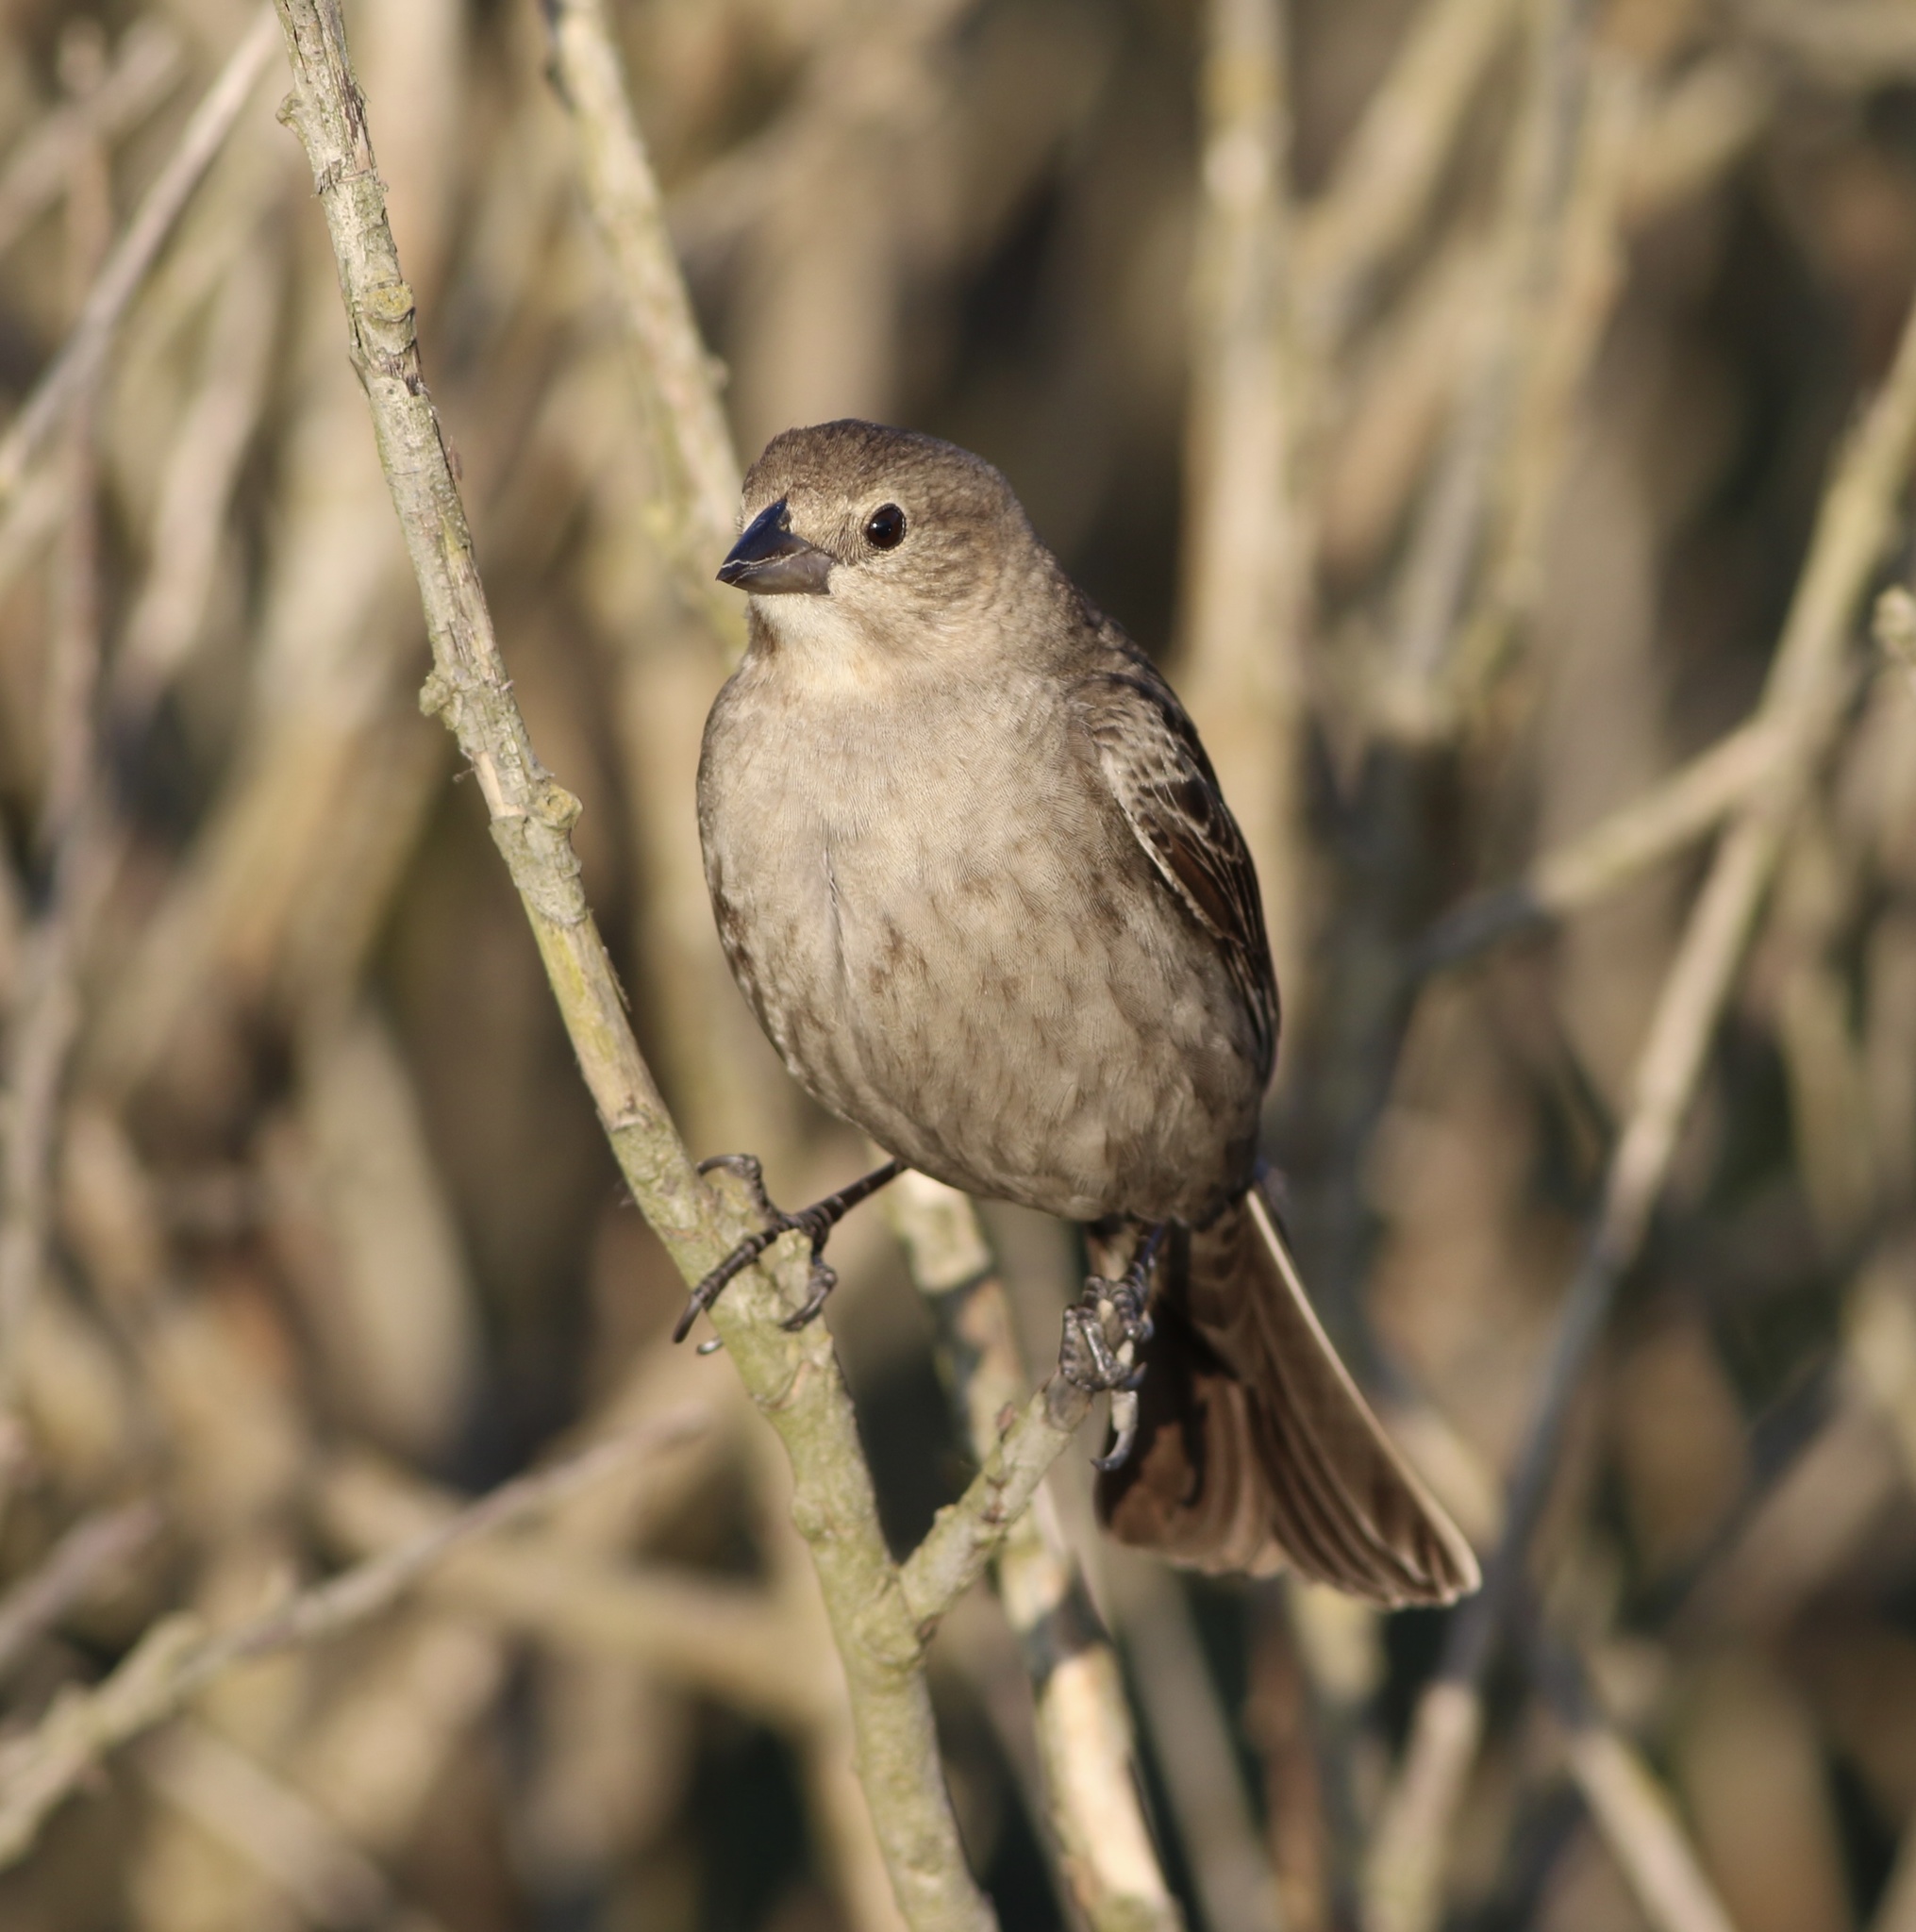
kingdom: Animalia
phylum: Chordata
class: Aves
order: Passeriformes
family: Icteridae
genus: Molothrus
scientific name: Molothrus ater
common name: Brown-headed cowbird
